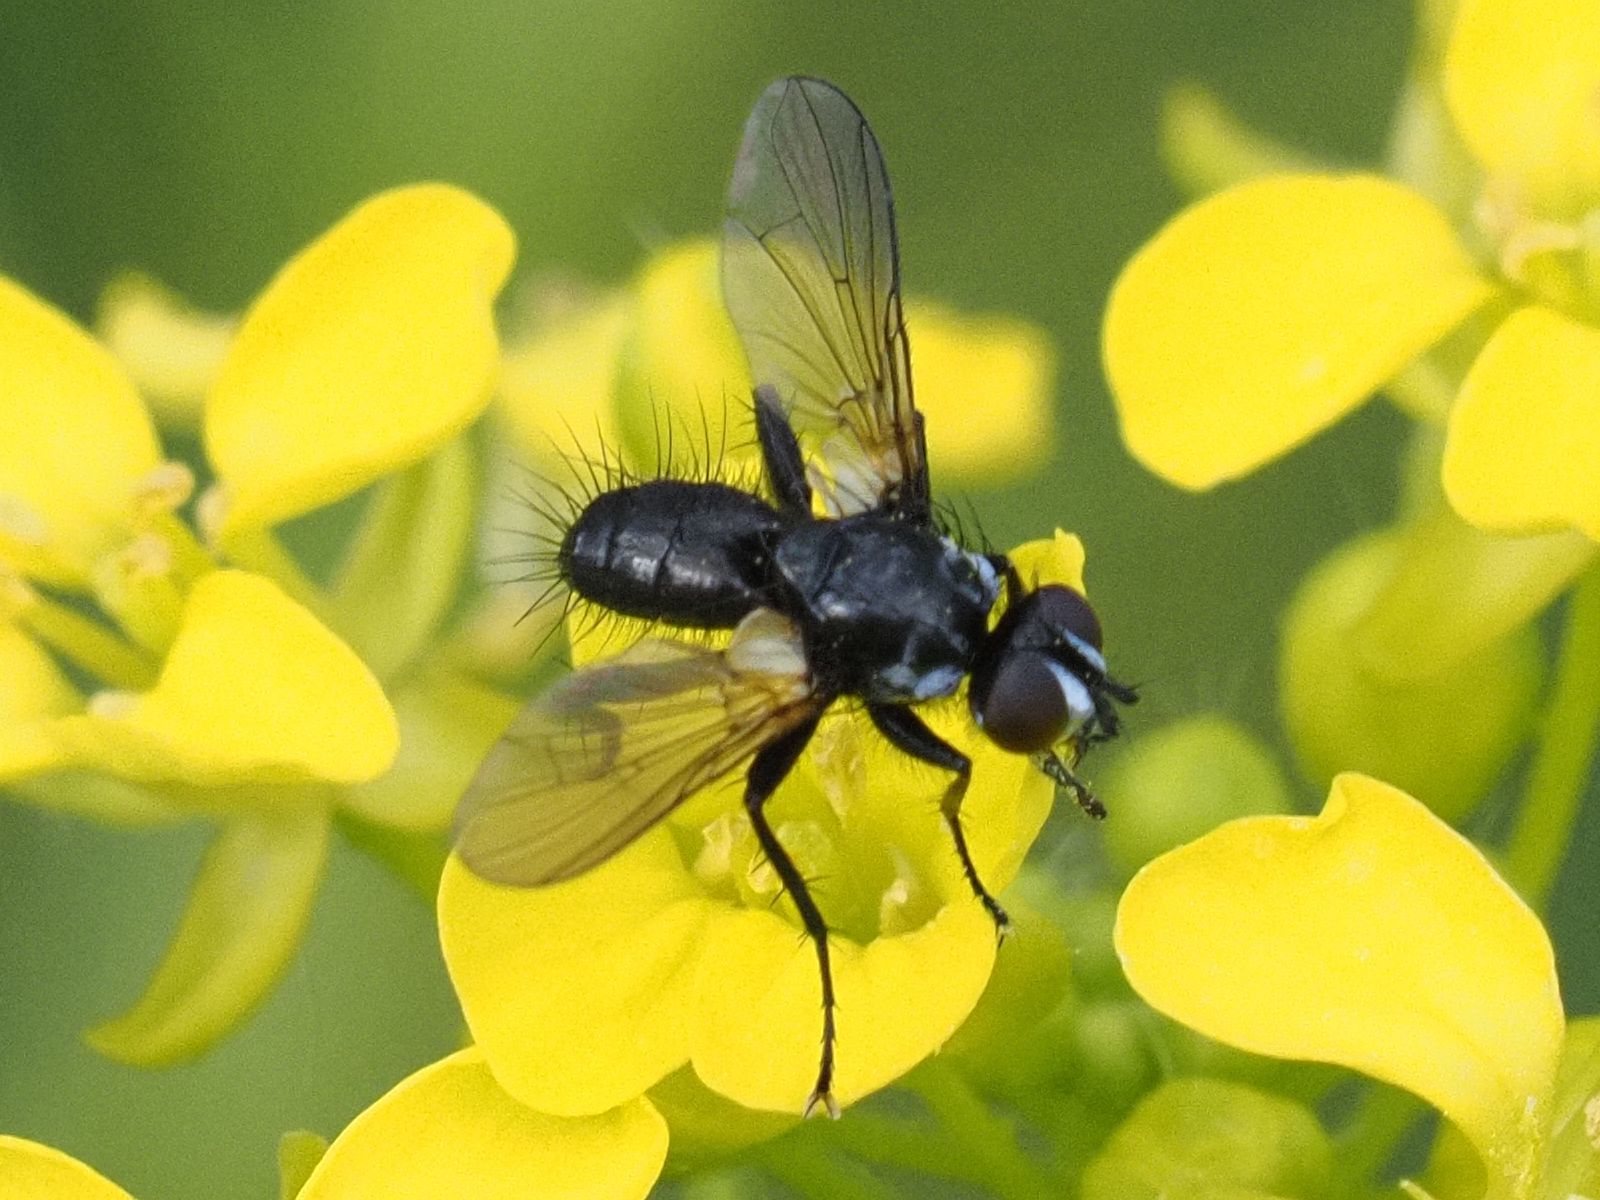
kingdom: Animalia
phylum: Arthropoda
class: Insecta
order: Diptera
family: Tachinidae
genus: Phania
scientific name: Phania funesta
